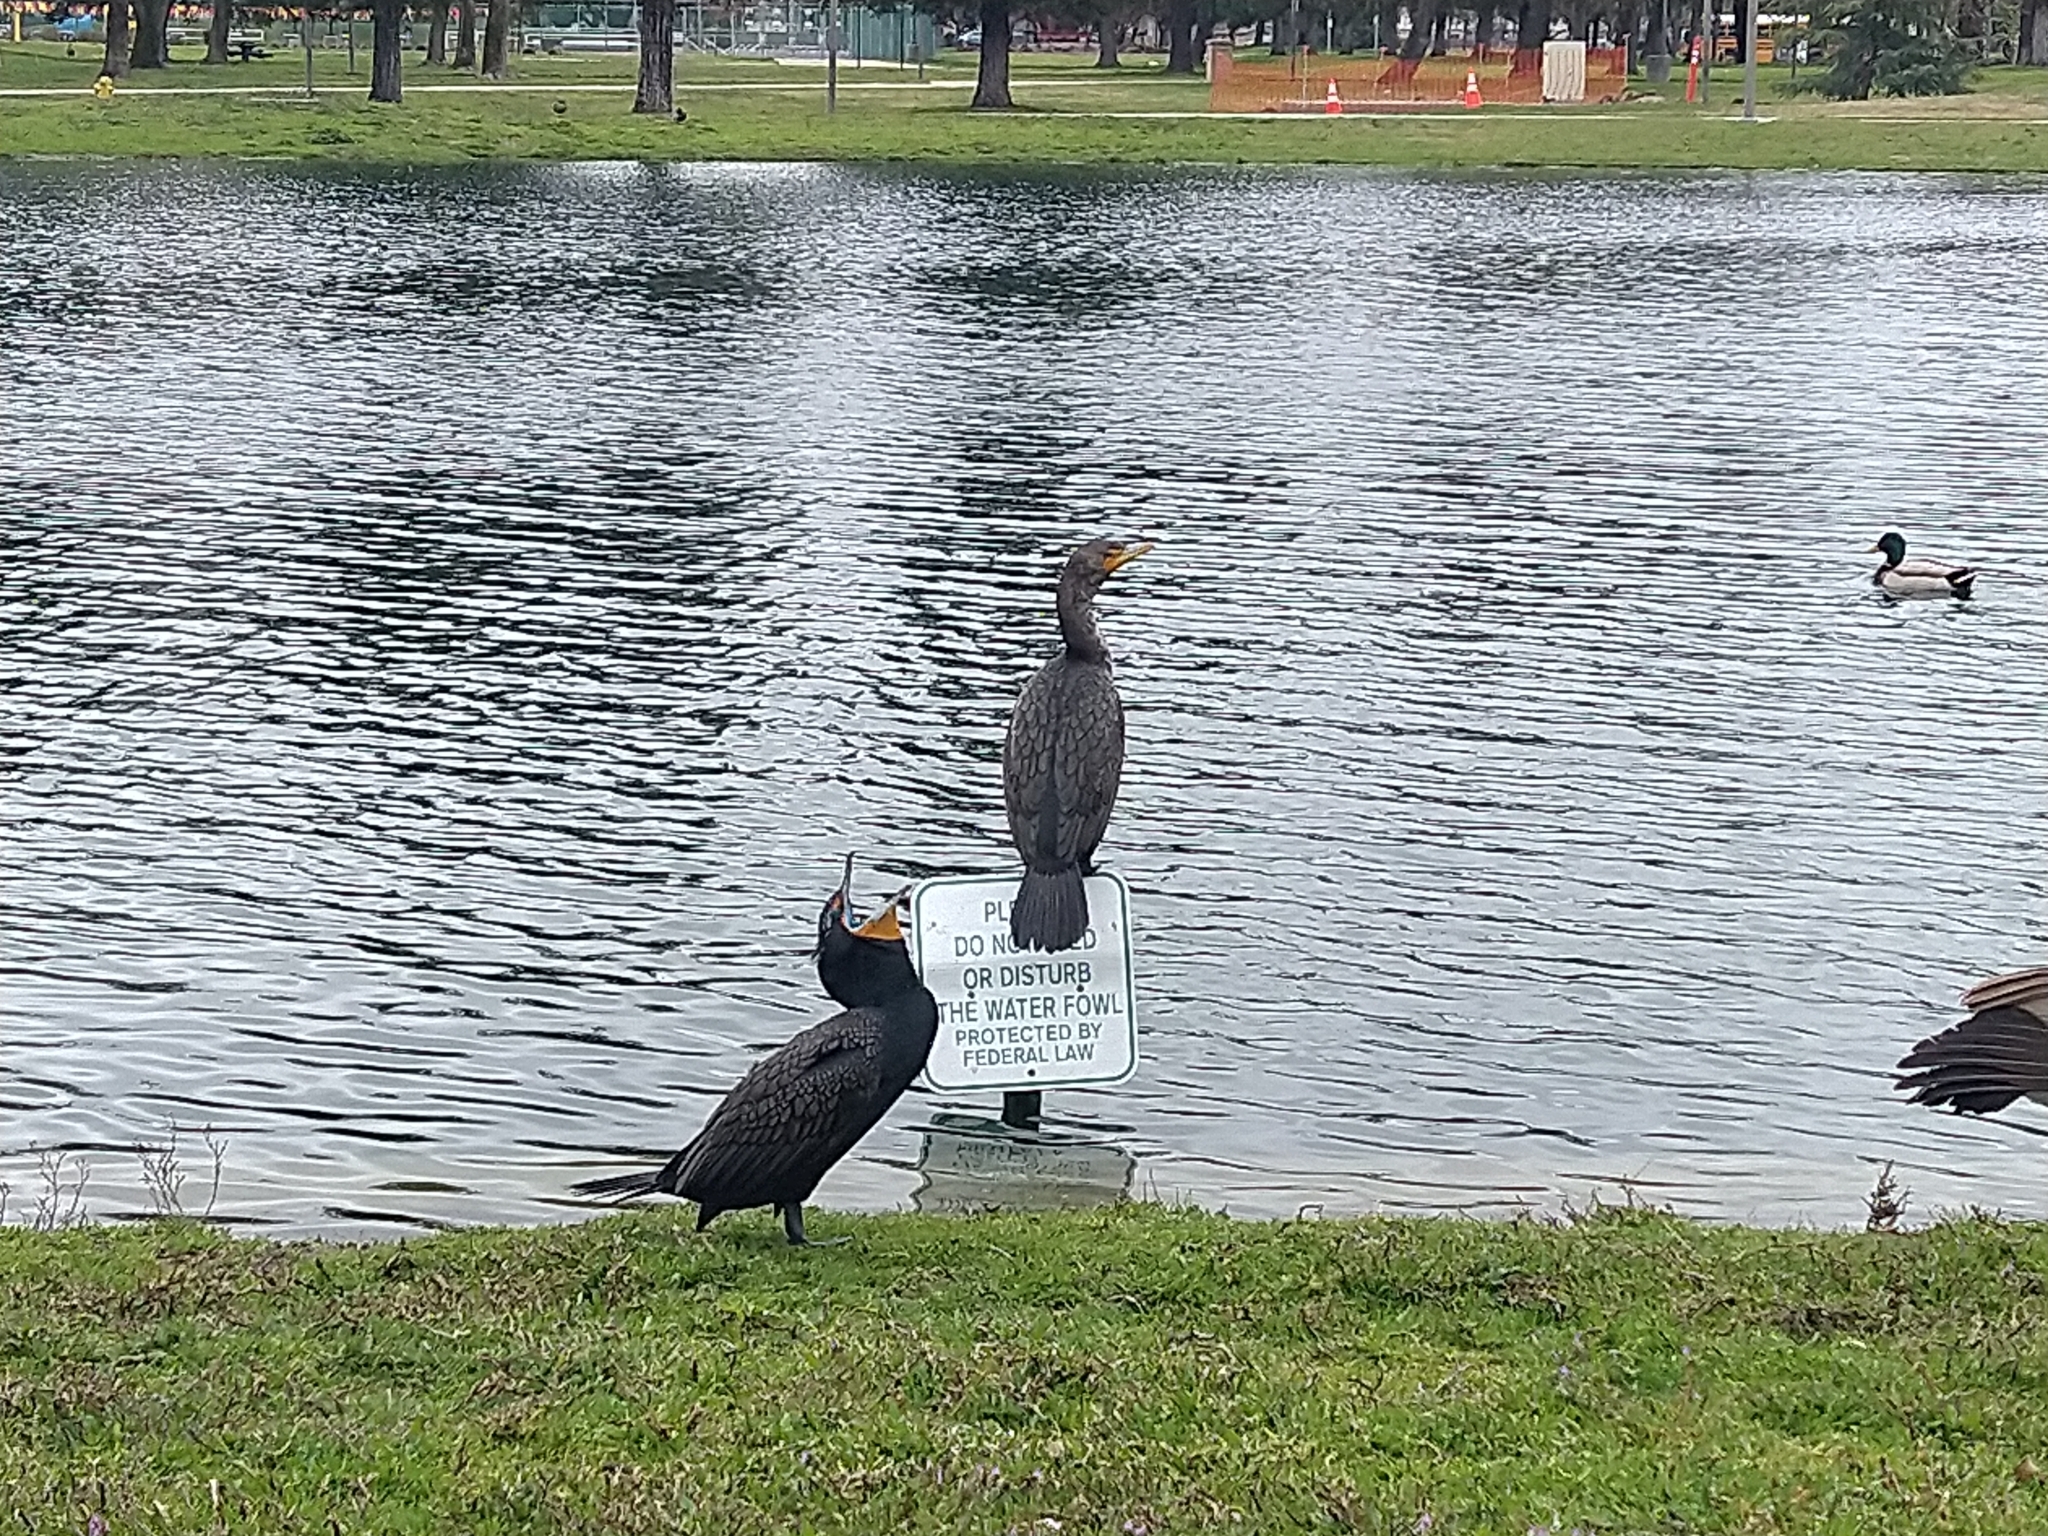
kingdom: Animalia
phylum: Chordata
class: Aves
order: Suliformes
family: Phalacrocoracidae
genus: Phalacrocorax
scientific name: Phalacrocorax auritus
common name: Double-crested cormorant
